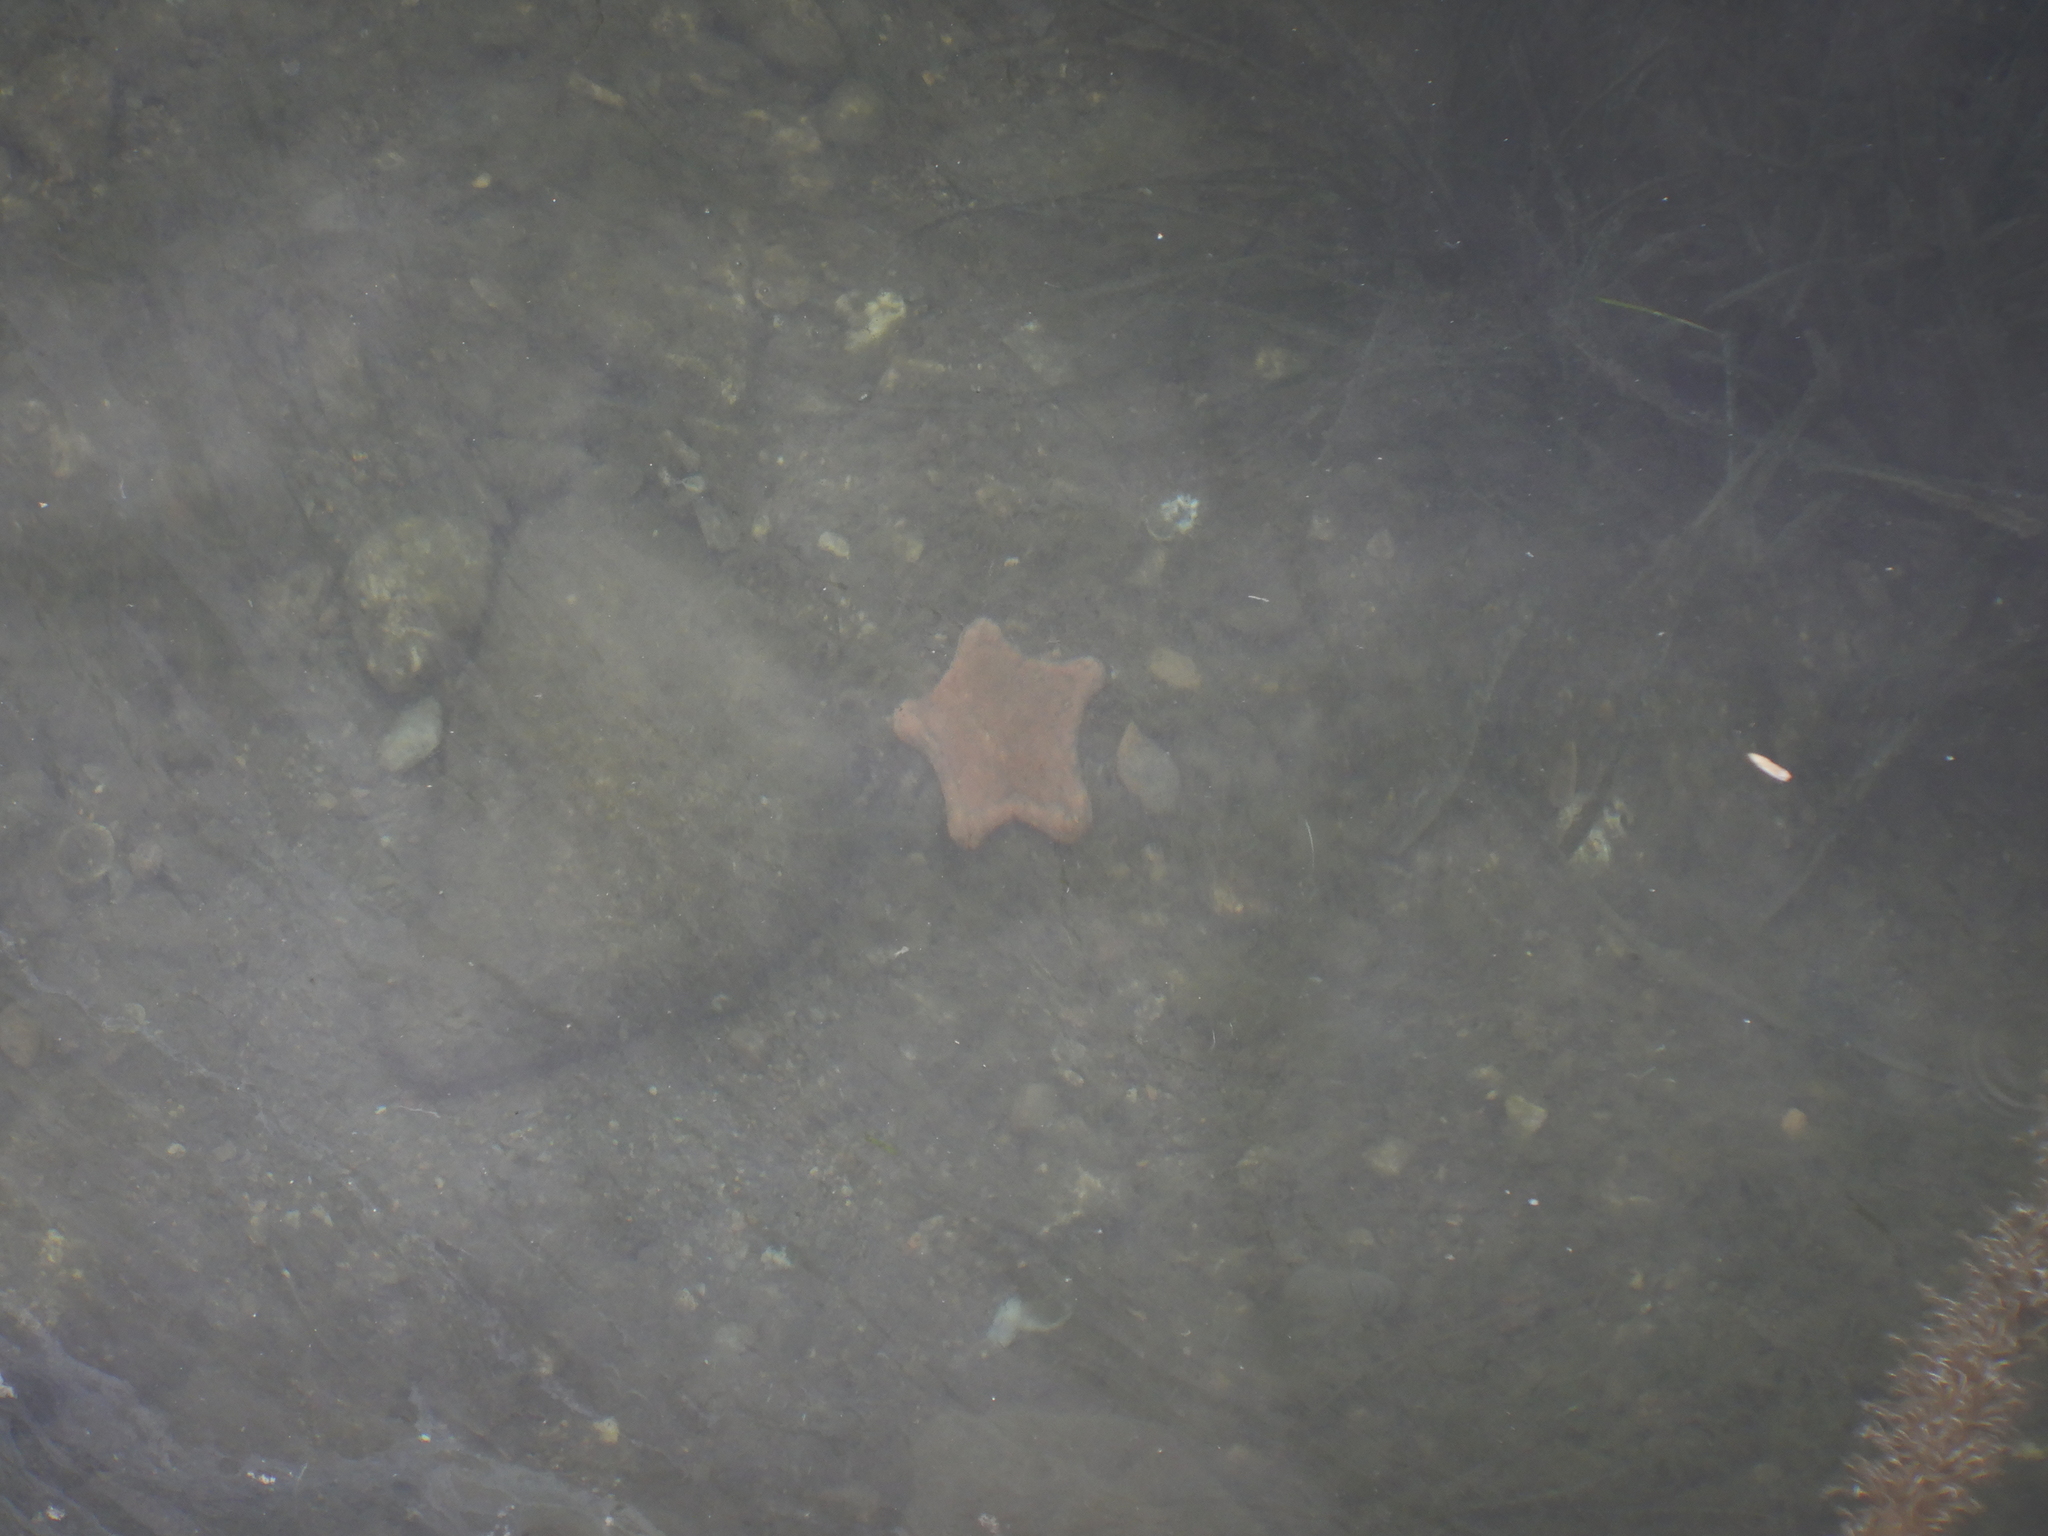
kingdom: Animalia
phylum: Echinodermata
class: Asteroidea
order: Valvatida
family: Goniasteridae
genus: Peltaster
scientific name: Peltaster placenta
